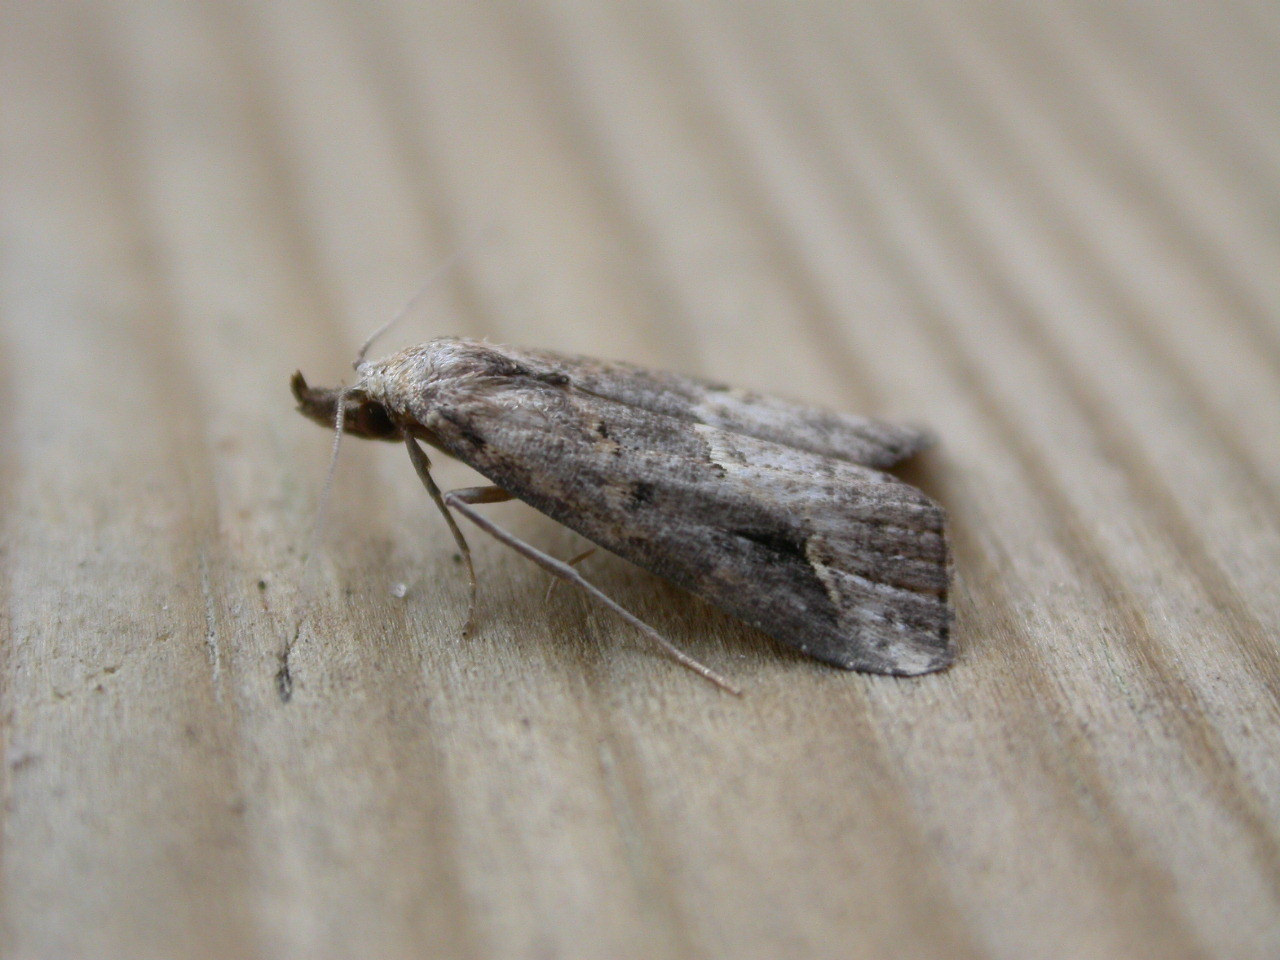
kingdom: Animalia
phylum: Arthropoda
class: Insecta
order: Lepidoptera
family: Erebidae
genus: Schrankia
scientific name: Schrankia costaestrigalis
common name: Pinion-streaked snout
